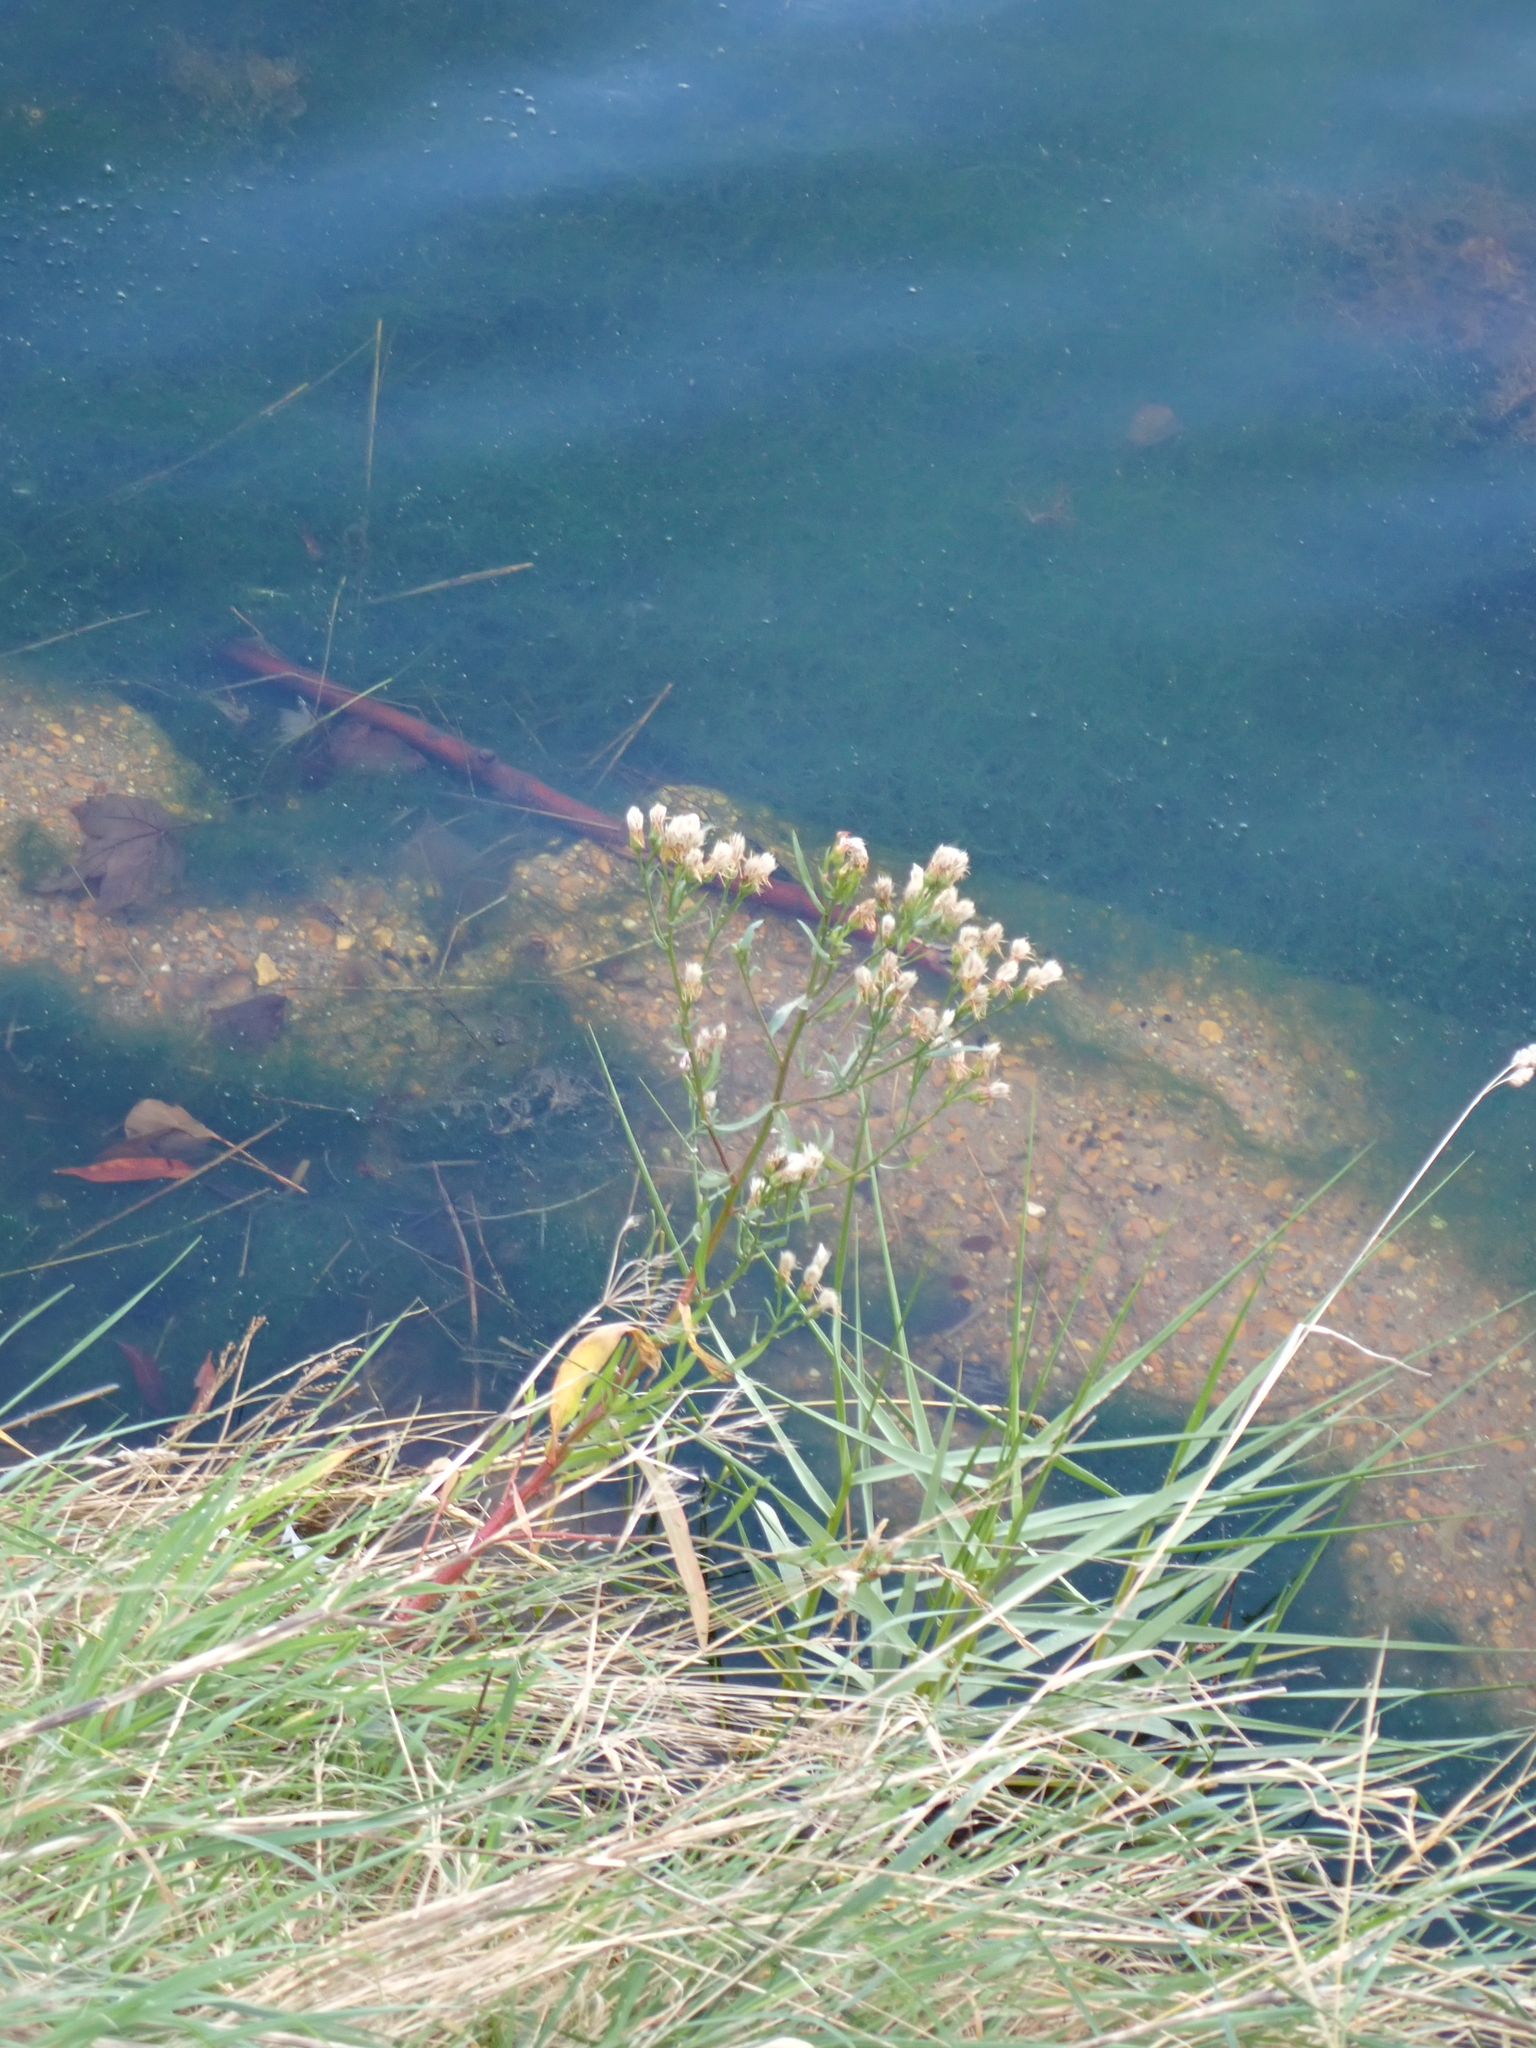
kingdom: Plantae
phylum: Tracheophyta
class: Magnoliopsida
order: Asterales
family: Asteraceae
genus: Tripolium
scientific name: Tripolium pannonicum
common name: Sea aster
